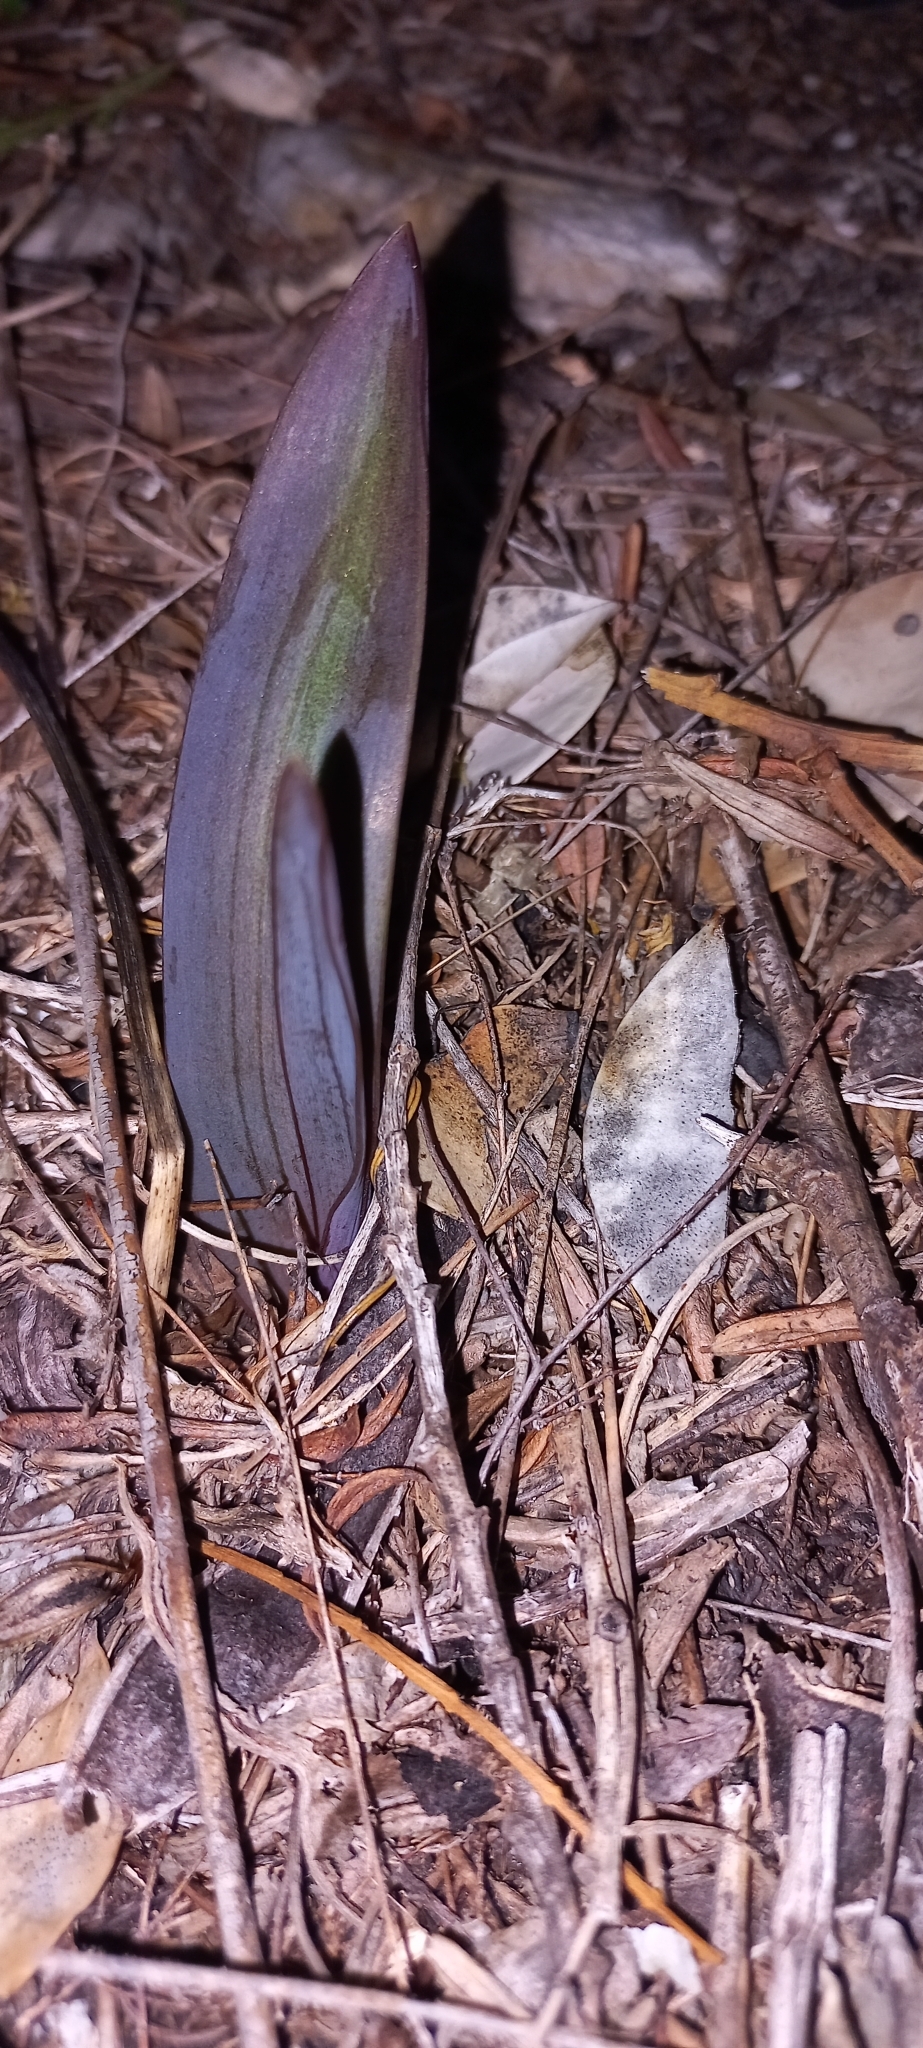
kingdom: Plantae
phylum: Tracheophyta
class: Liliopsida
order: Asparagales
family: Asparagaceae
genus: Lachenalia
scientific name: Lachenalia peersii
